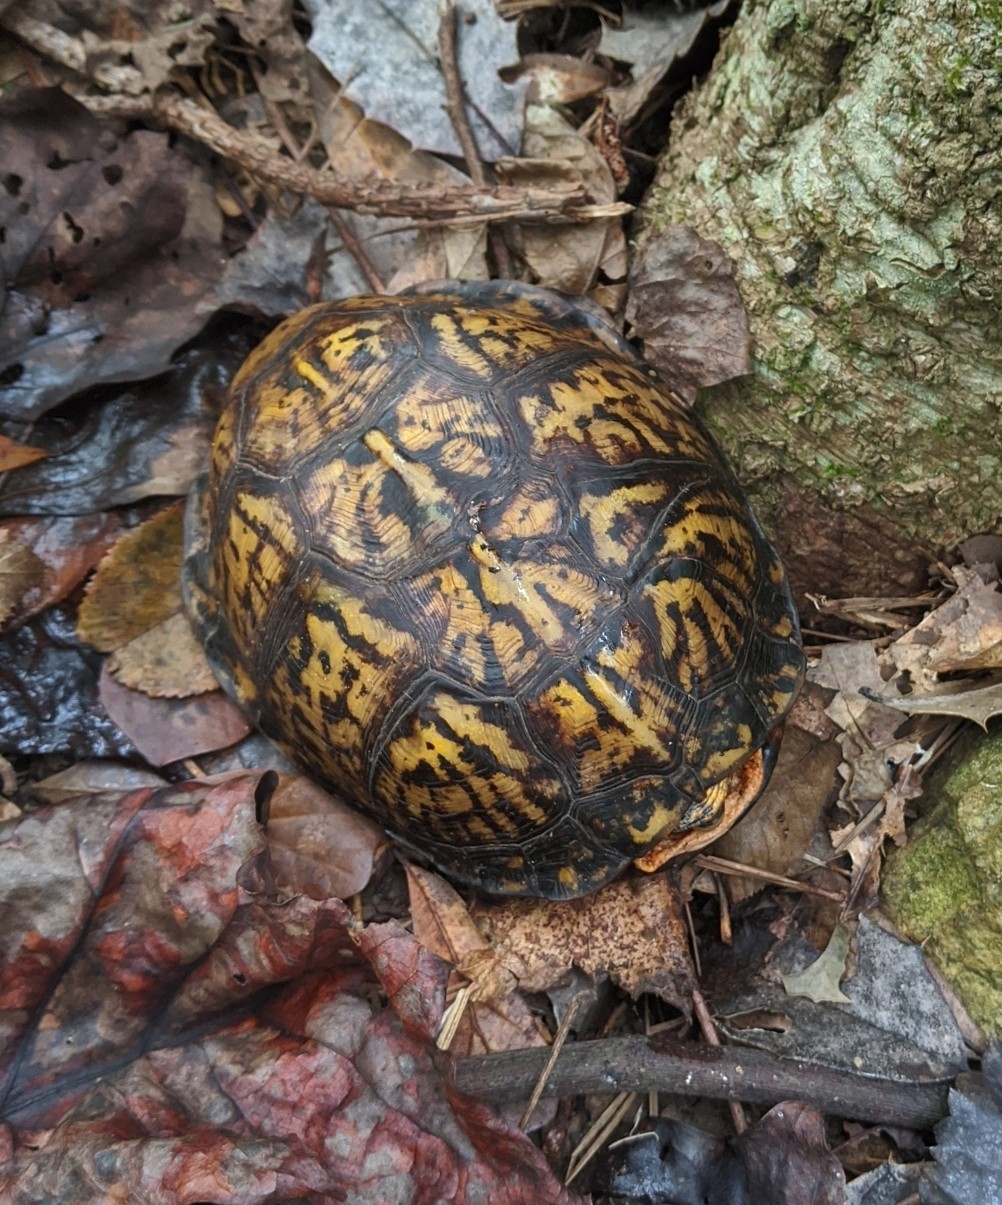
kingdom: Animalia
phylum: Chordata
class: Testudines
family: Emydidae
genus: Terrapene
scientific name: Terrapene carolina
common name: Common box turtle
